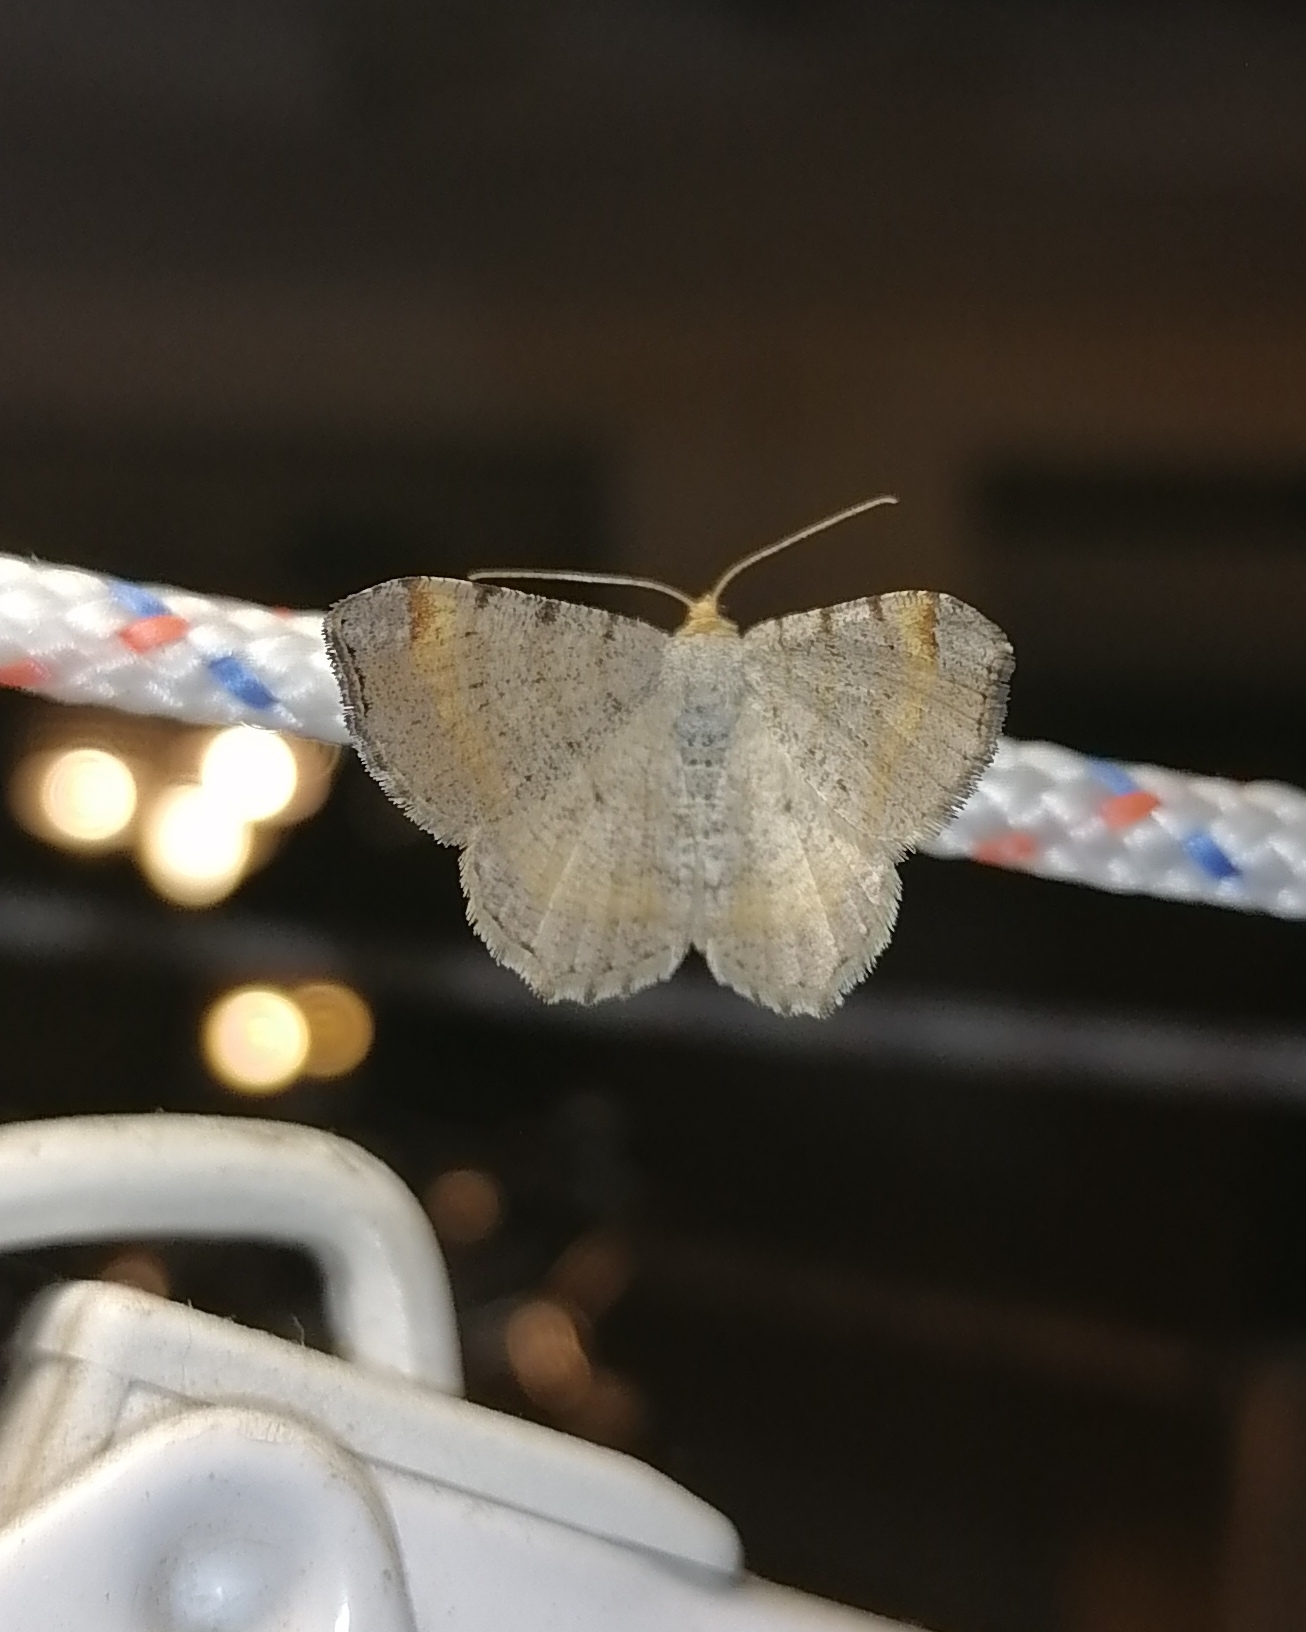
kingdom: Animalia
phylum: Arthropoda
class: Insecta
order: Lepidoptera
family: Geometridae
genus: Macaria
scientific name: Macaria liturata
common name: Tawny-barred angle
